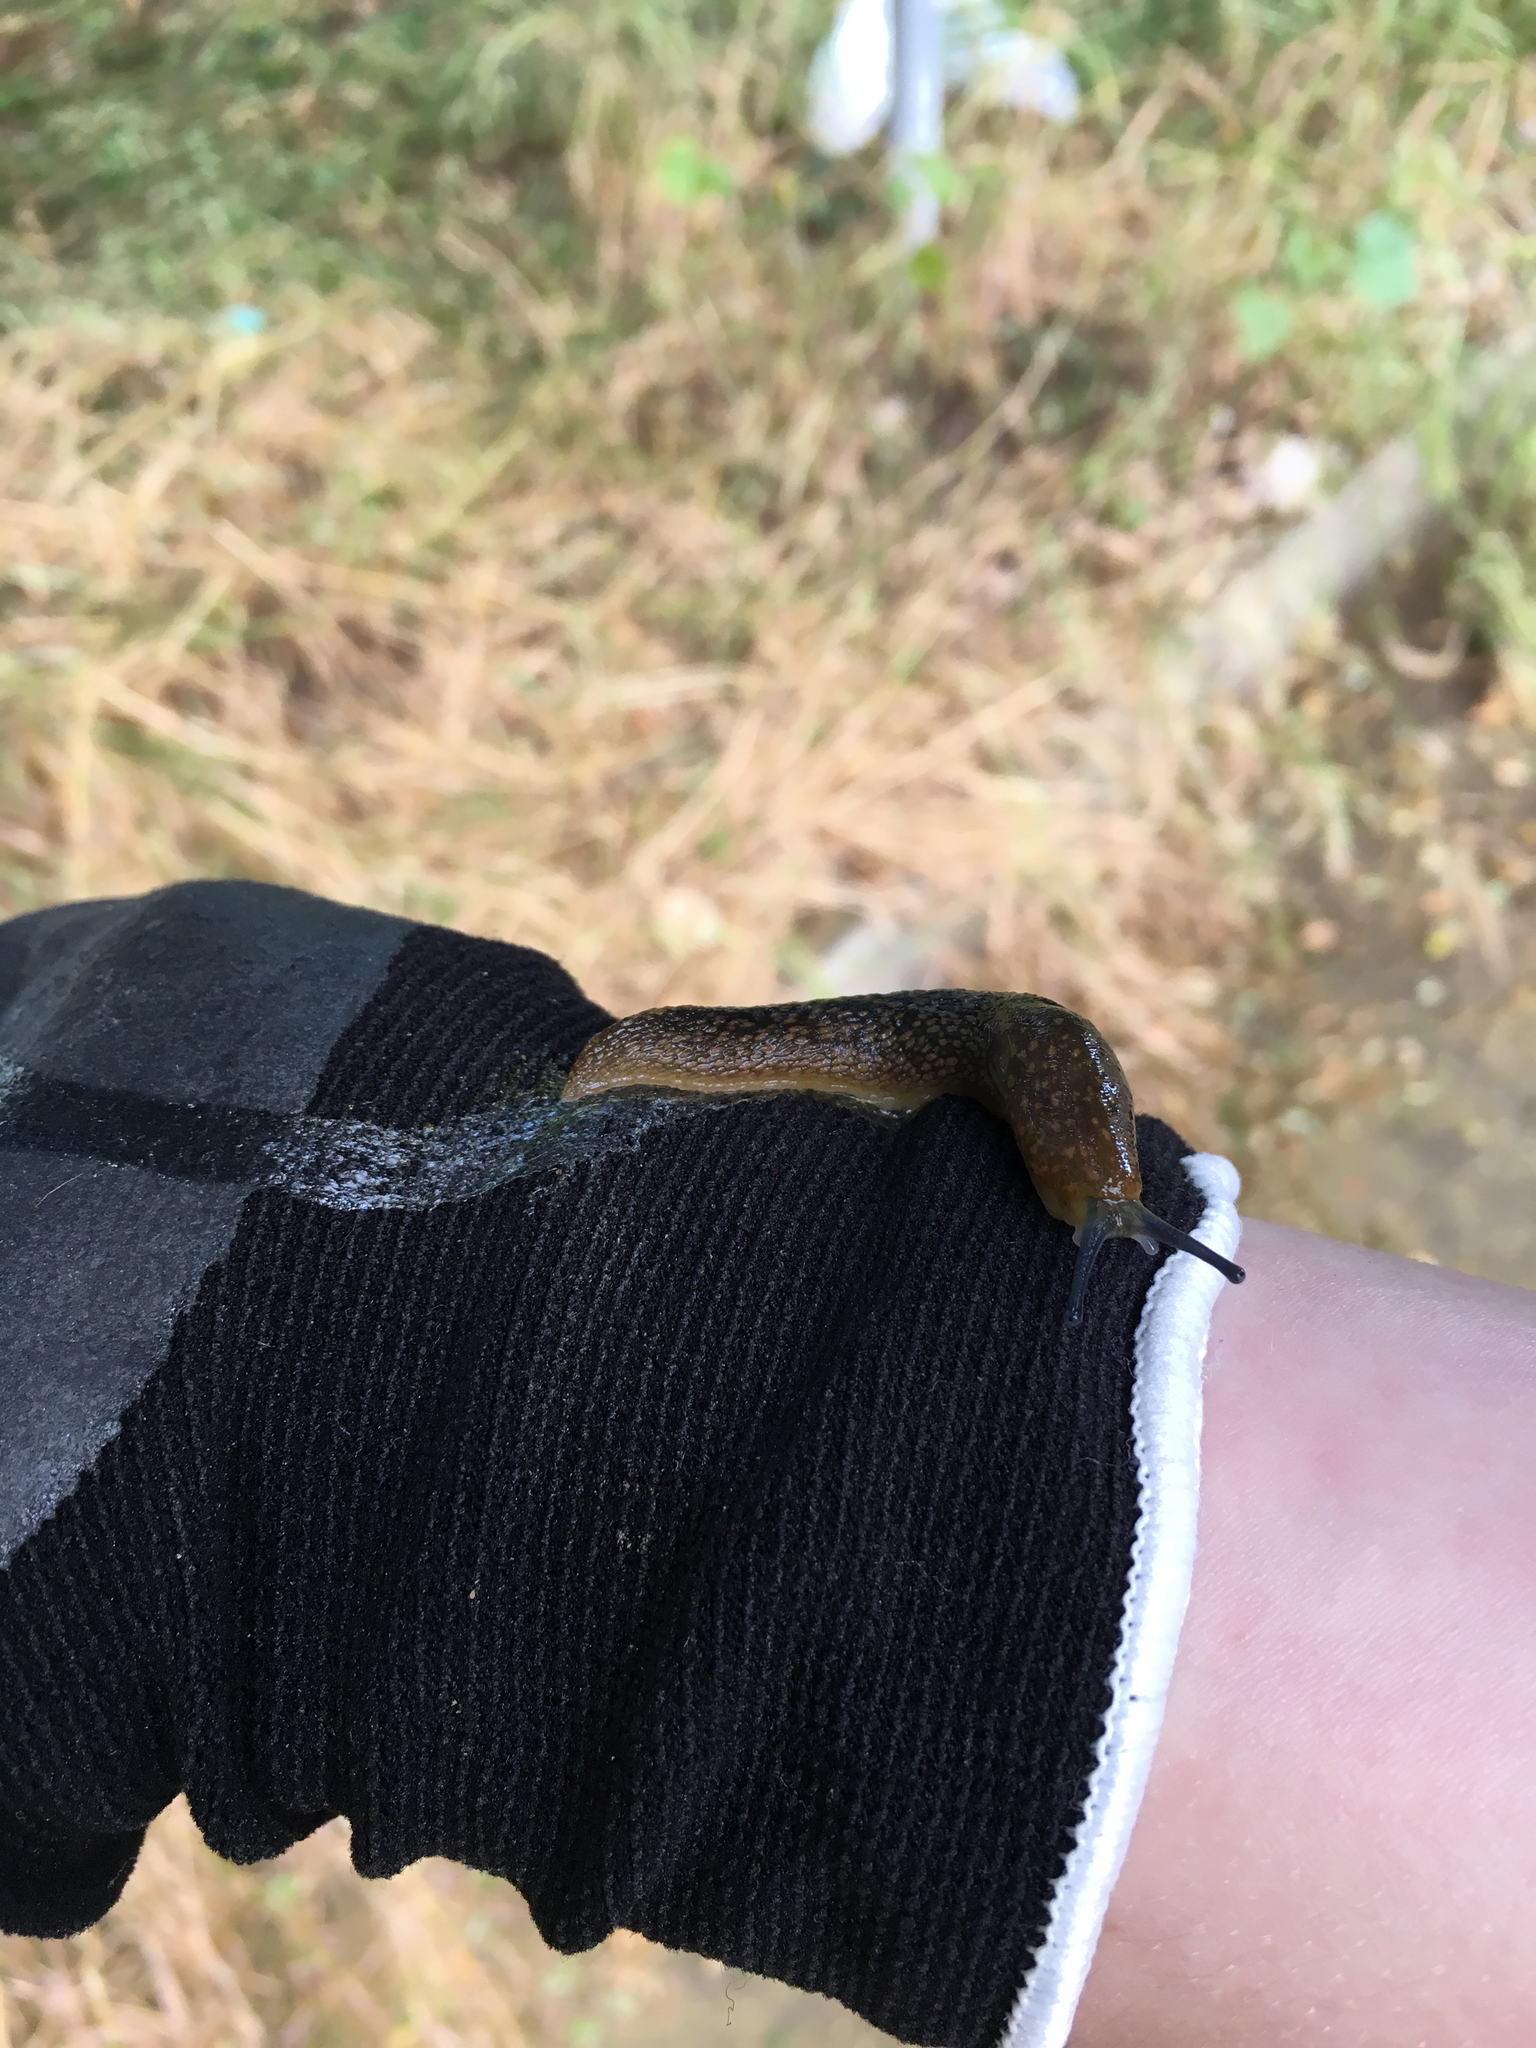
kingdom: Animalia
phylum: Mollusca
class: Gastropoda
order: Stylommatophora
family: Limacidae
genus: Limacus
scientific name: Limacus flavus
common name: Yellow gardenslug
